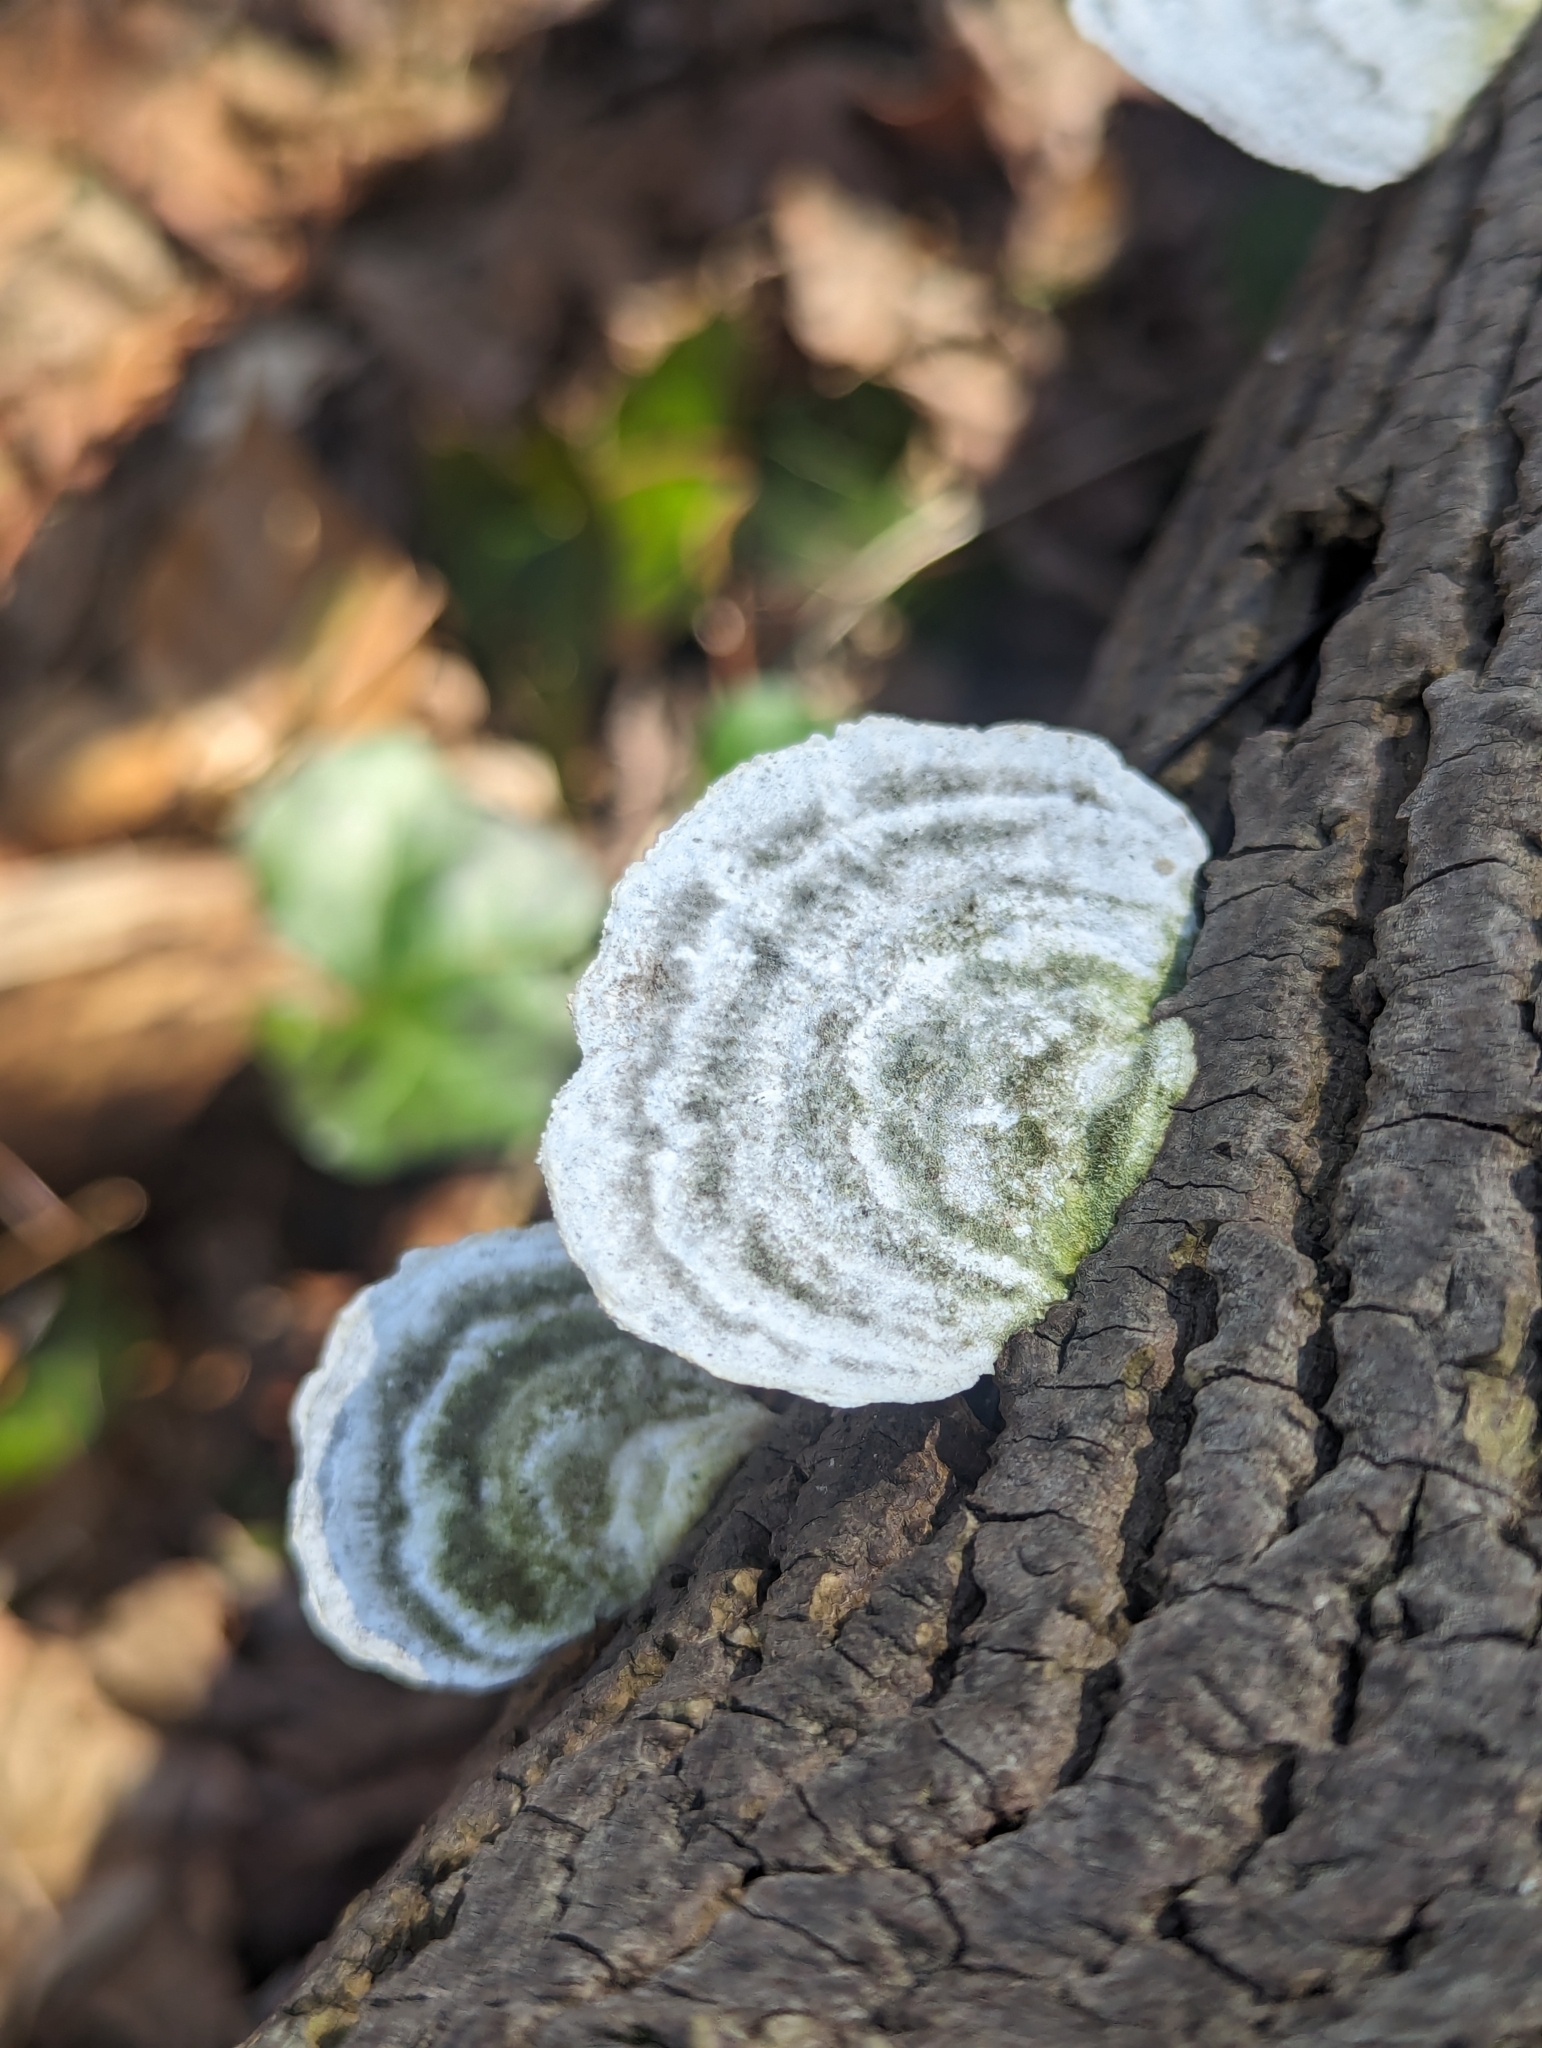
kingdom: Fungi
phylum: Basidiomycota
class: Agaricomycetes
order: Polyporales
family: Polyporaceae
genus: Trametes
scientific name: Trametes gibbosa
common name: Lumpy bracket
